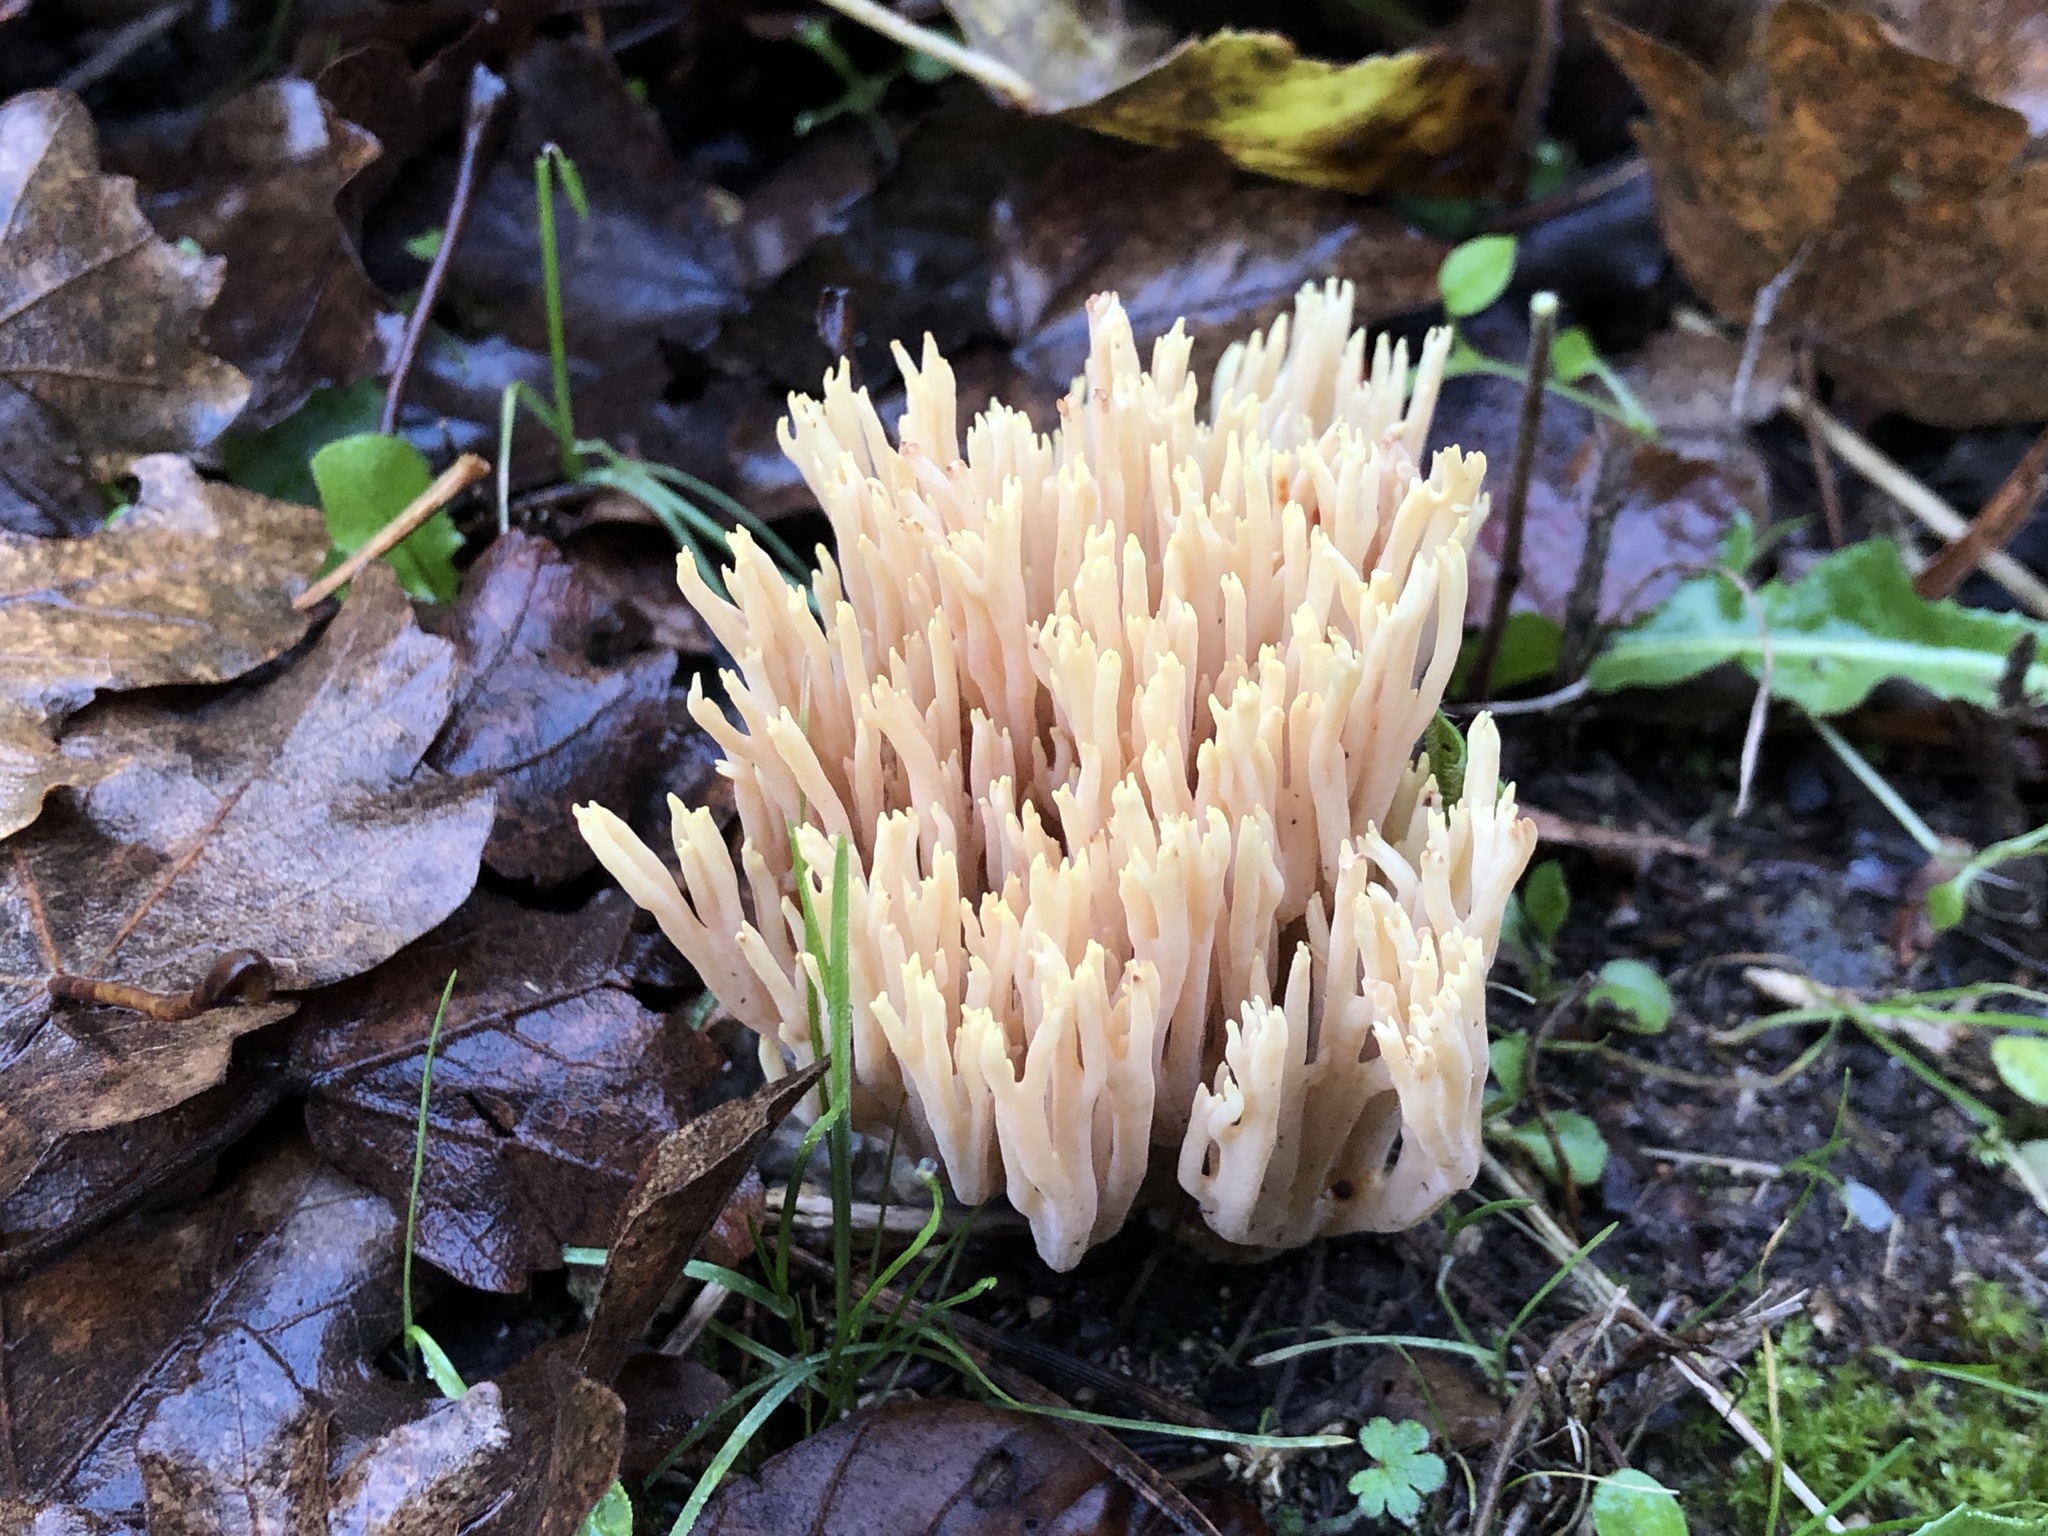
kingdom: Fungi
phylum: Basidiomycota
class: Agaricomycetes
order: Gomphales
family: Gomphaceae
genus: Ramaria
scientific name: Ramaria stricta
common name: Upright coral
